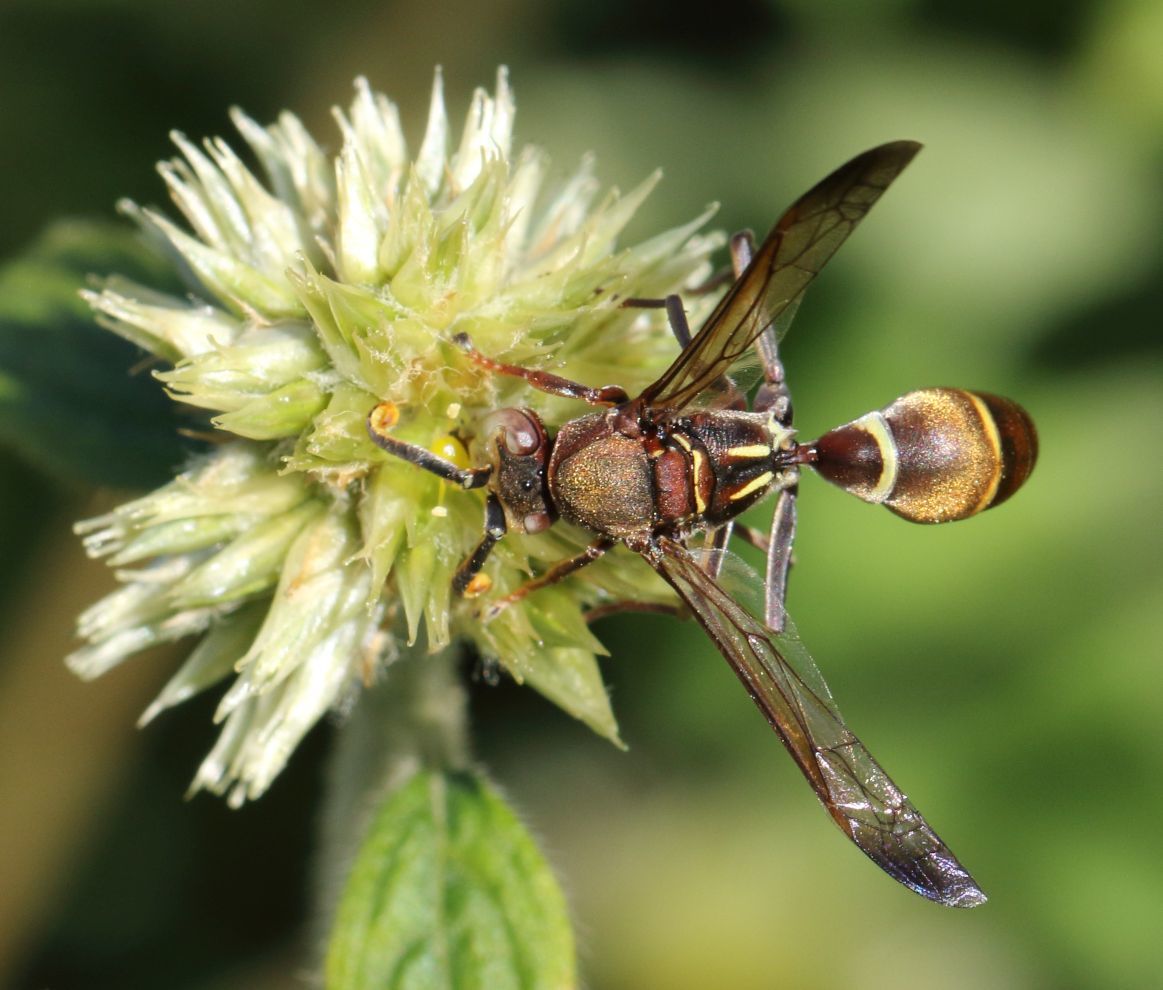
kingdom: Plantae
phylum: Tracheophyta
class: Magnoliopsida
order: Caryophyllales
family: Amaranthaceae
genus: Cyathula
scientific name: Cyathula uncinulata
